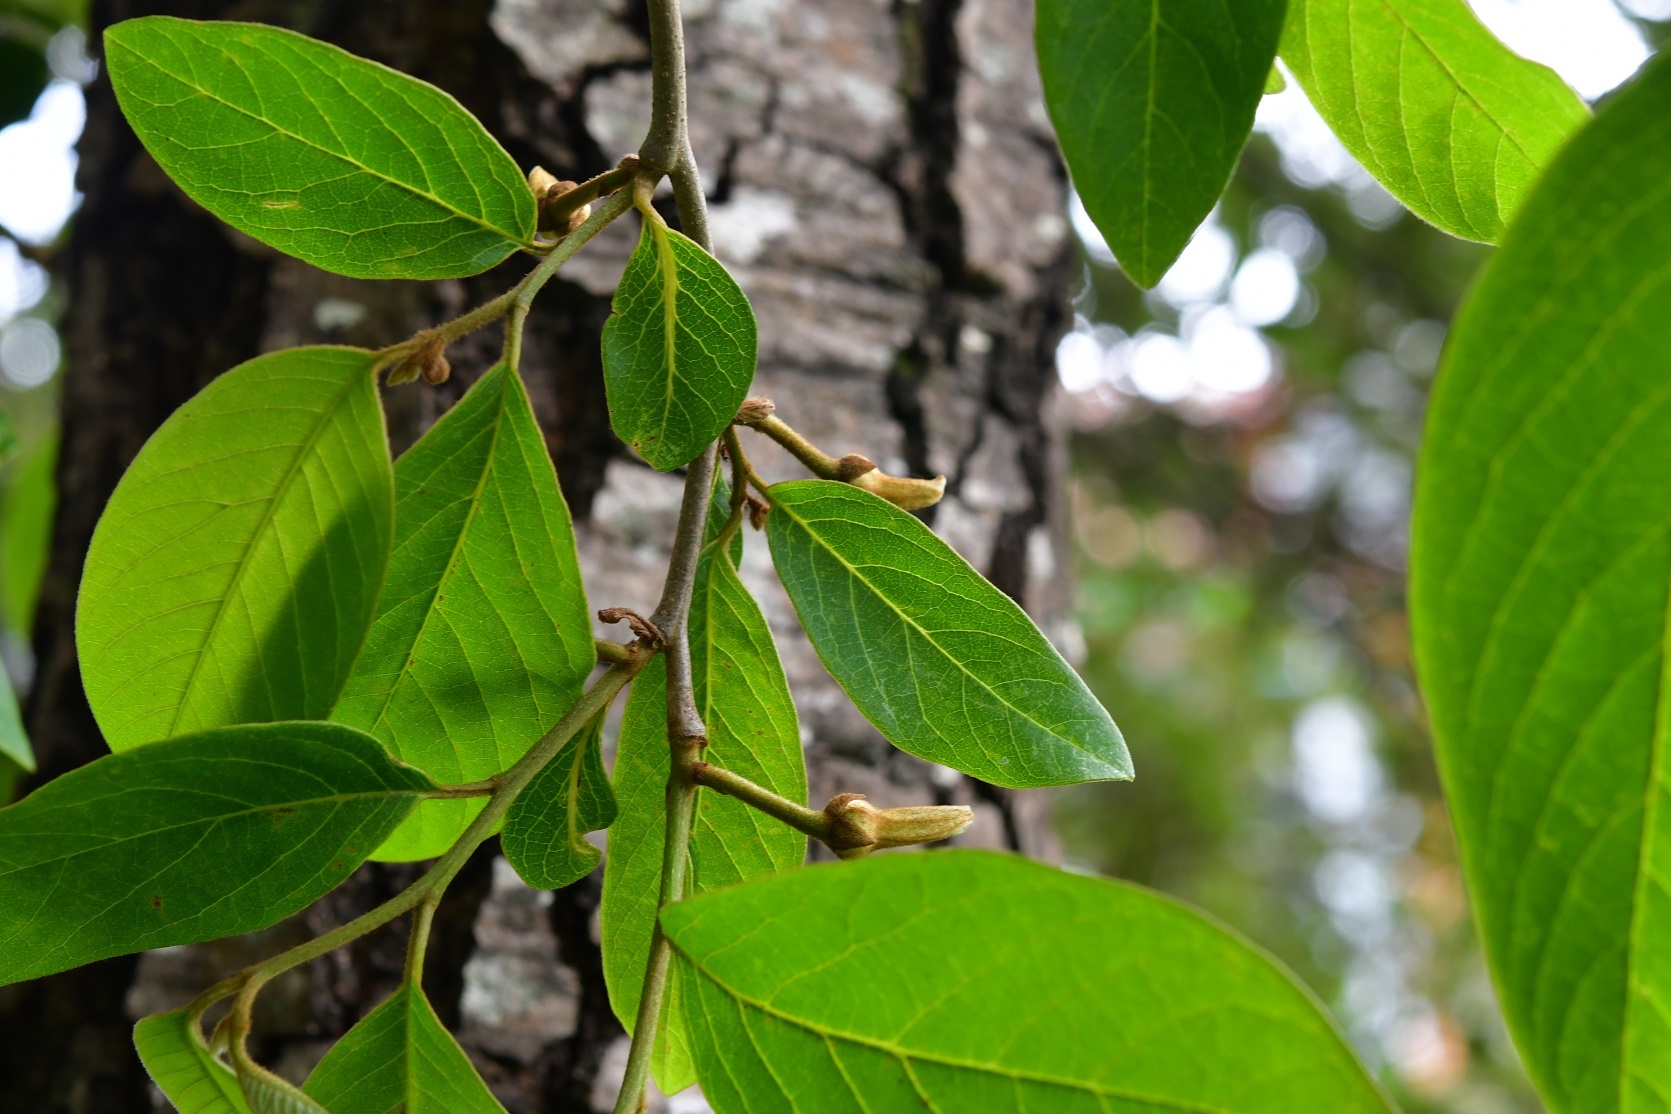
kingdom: Plantae
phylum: Tracheophyta
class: Magnoliopsida
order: Magnoliales
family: Annonaceae
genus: Annona
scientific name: Annona cherimola
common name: Cherimoya
